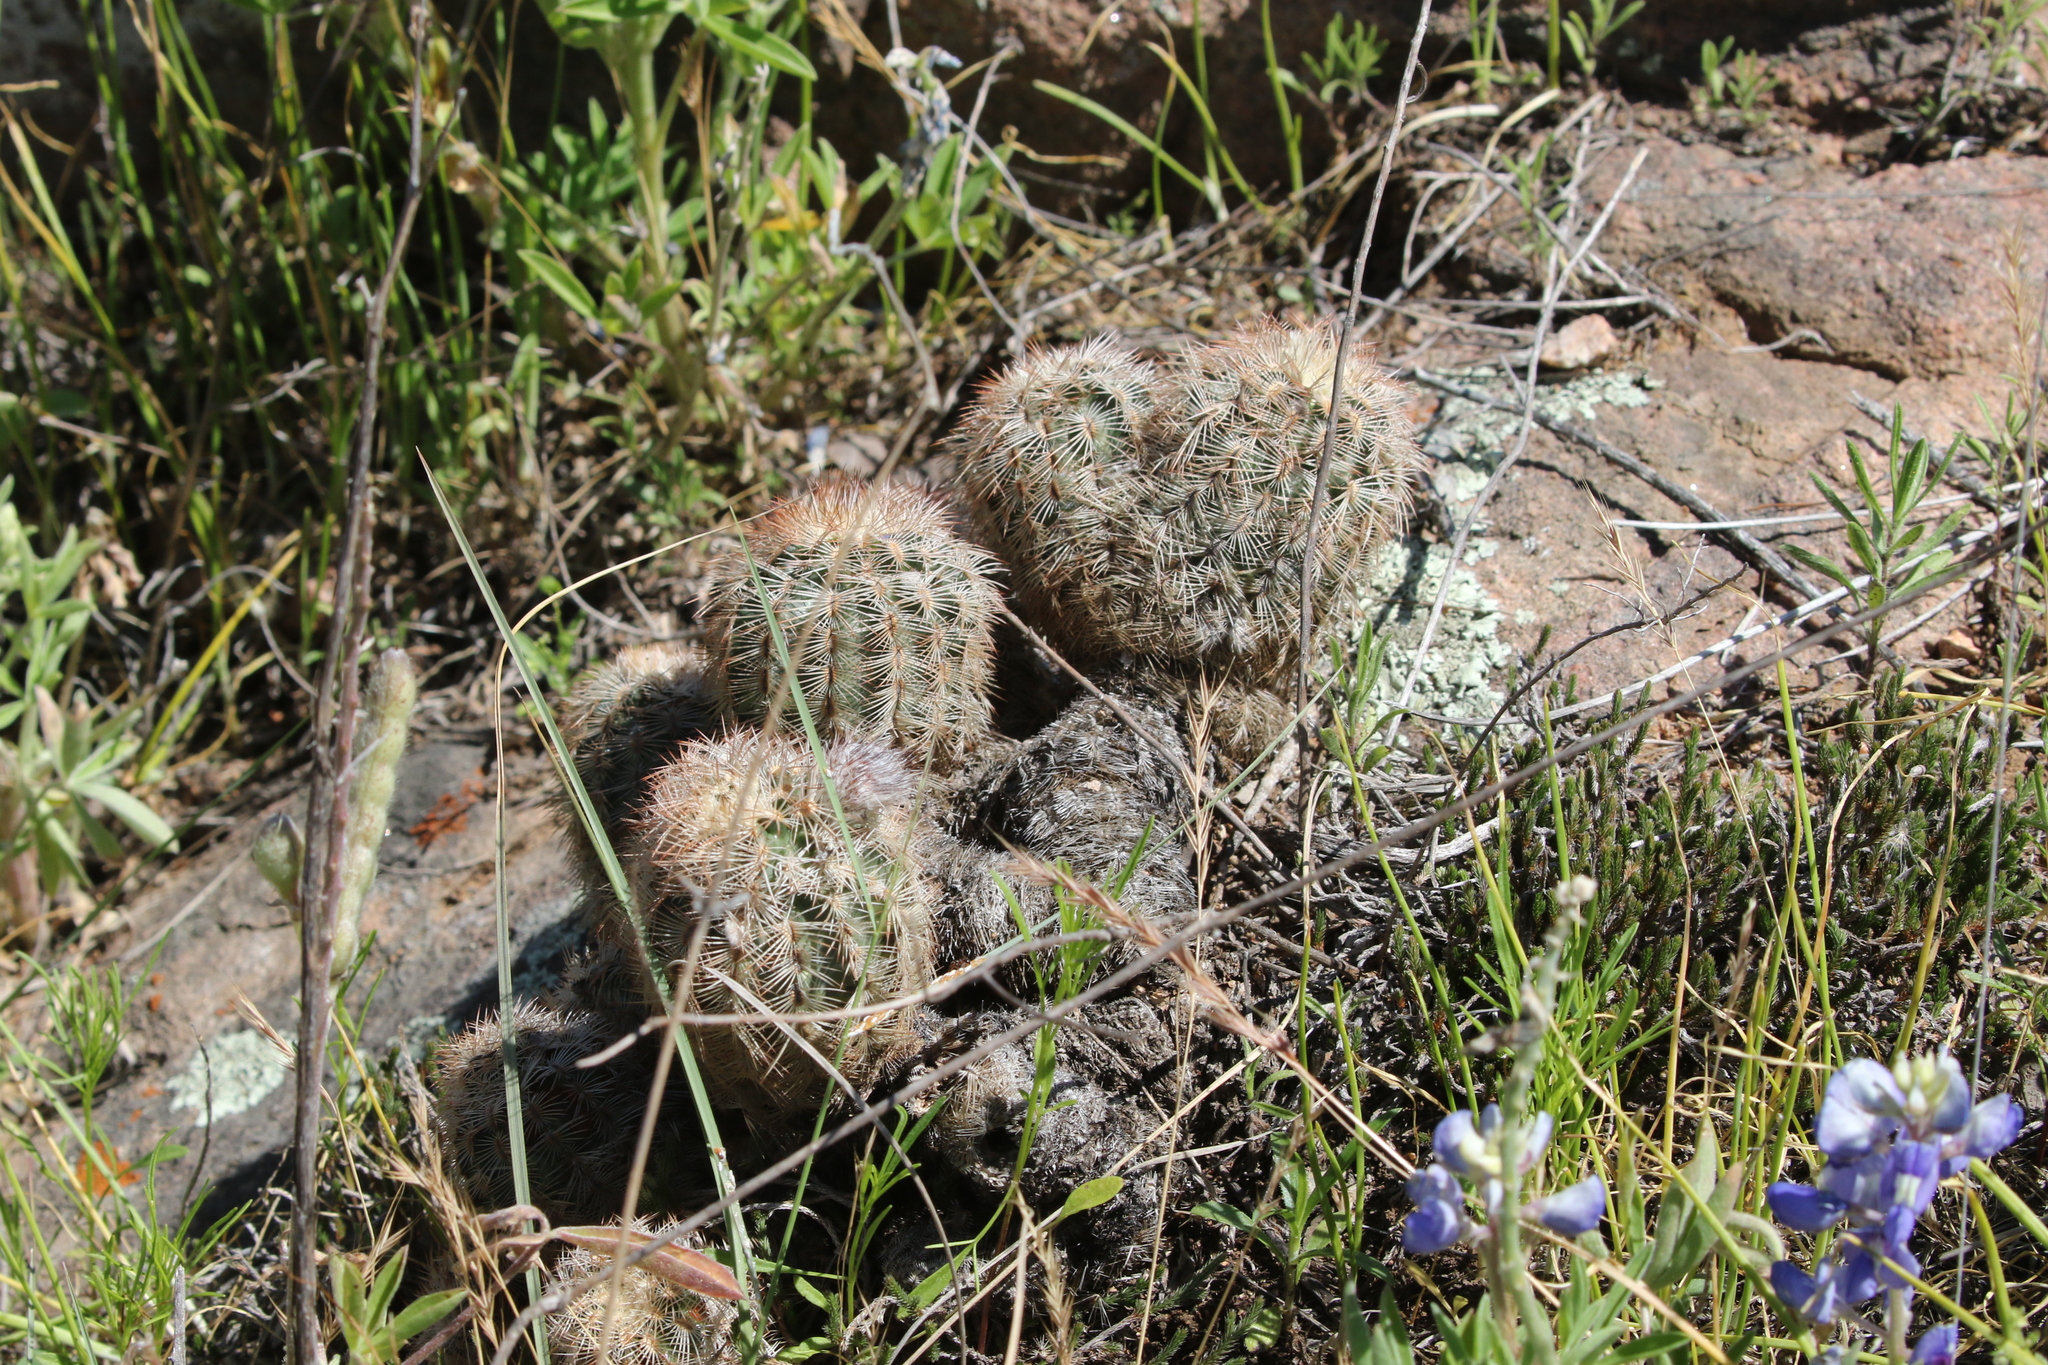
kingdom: Plantae
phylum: Tracheophyta
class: Magnoliopsida
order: Caryophyllales
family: Cactaceae
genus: Echinocereus
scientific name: Echinocereus reichenbachii
